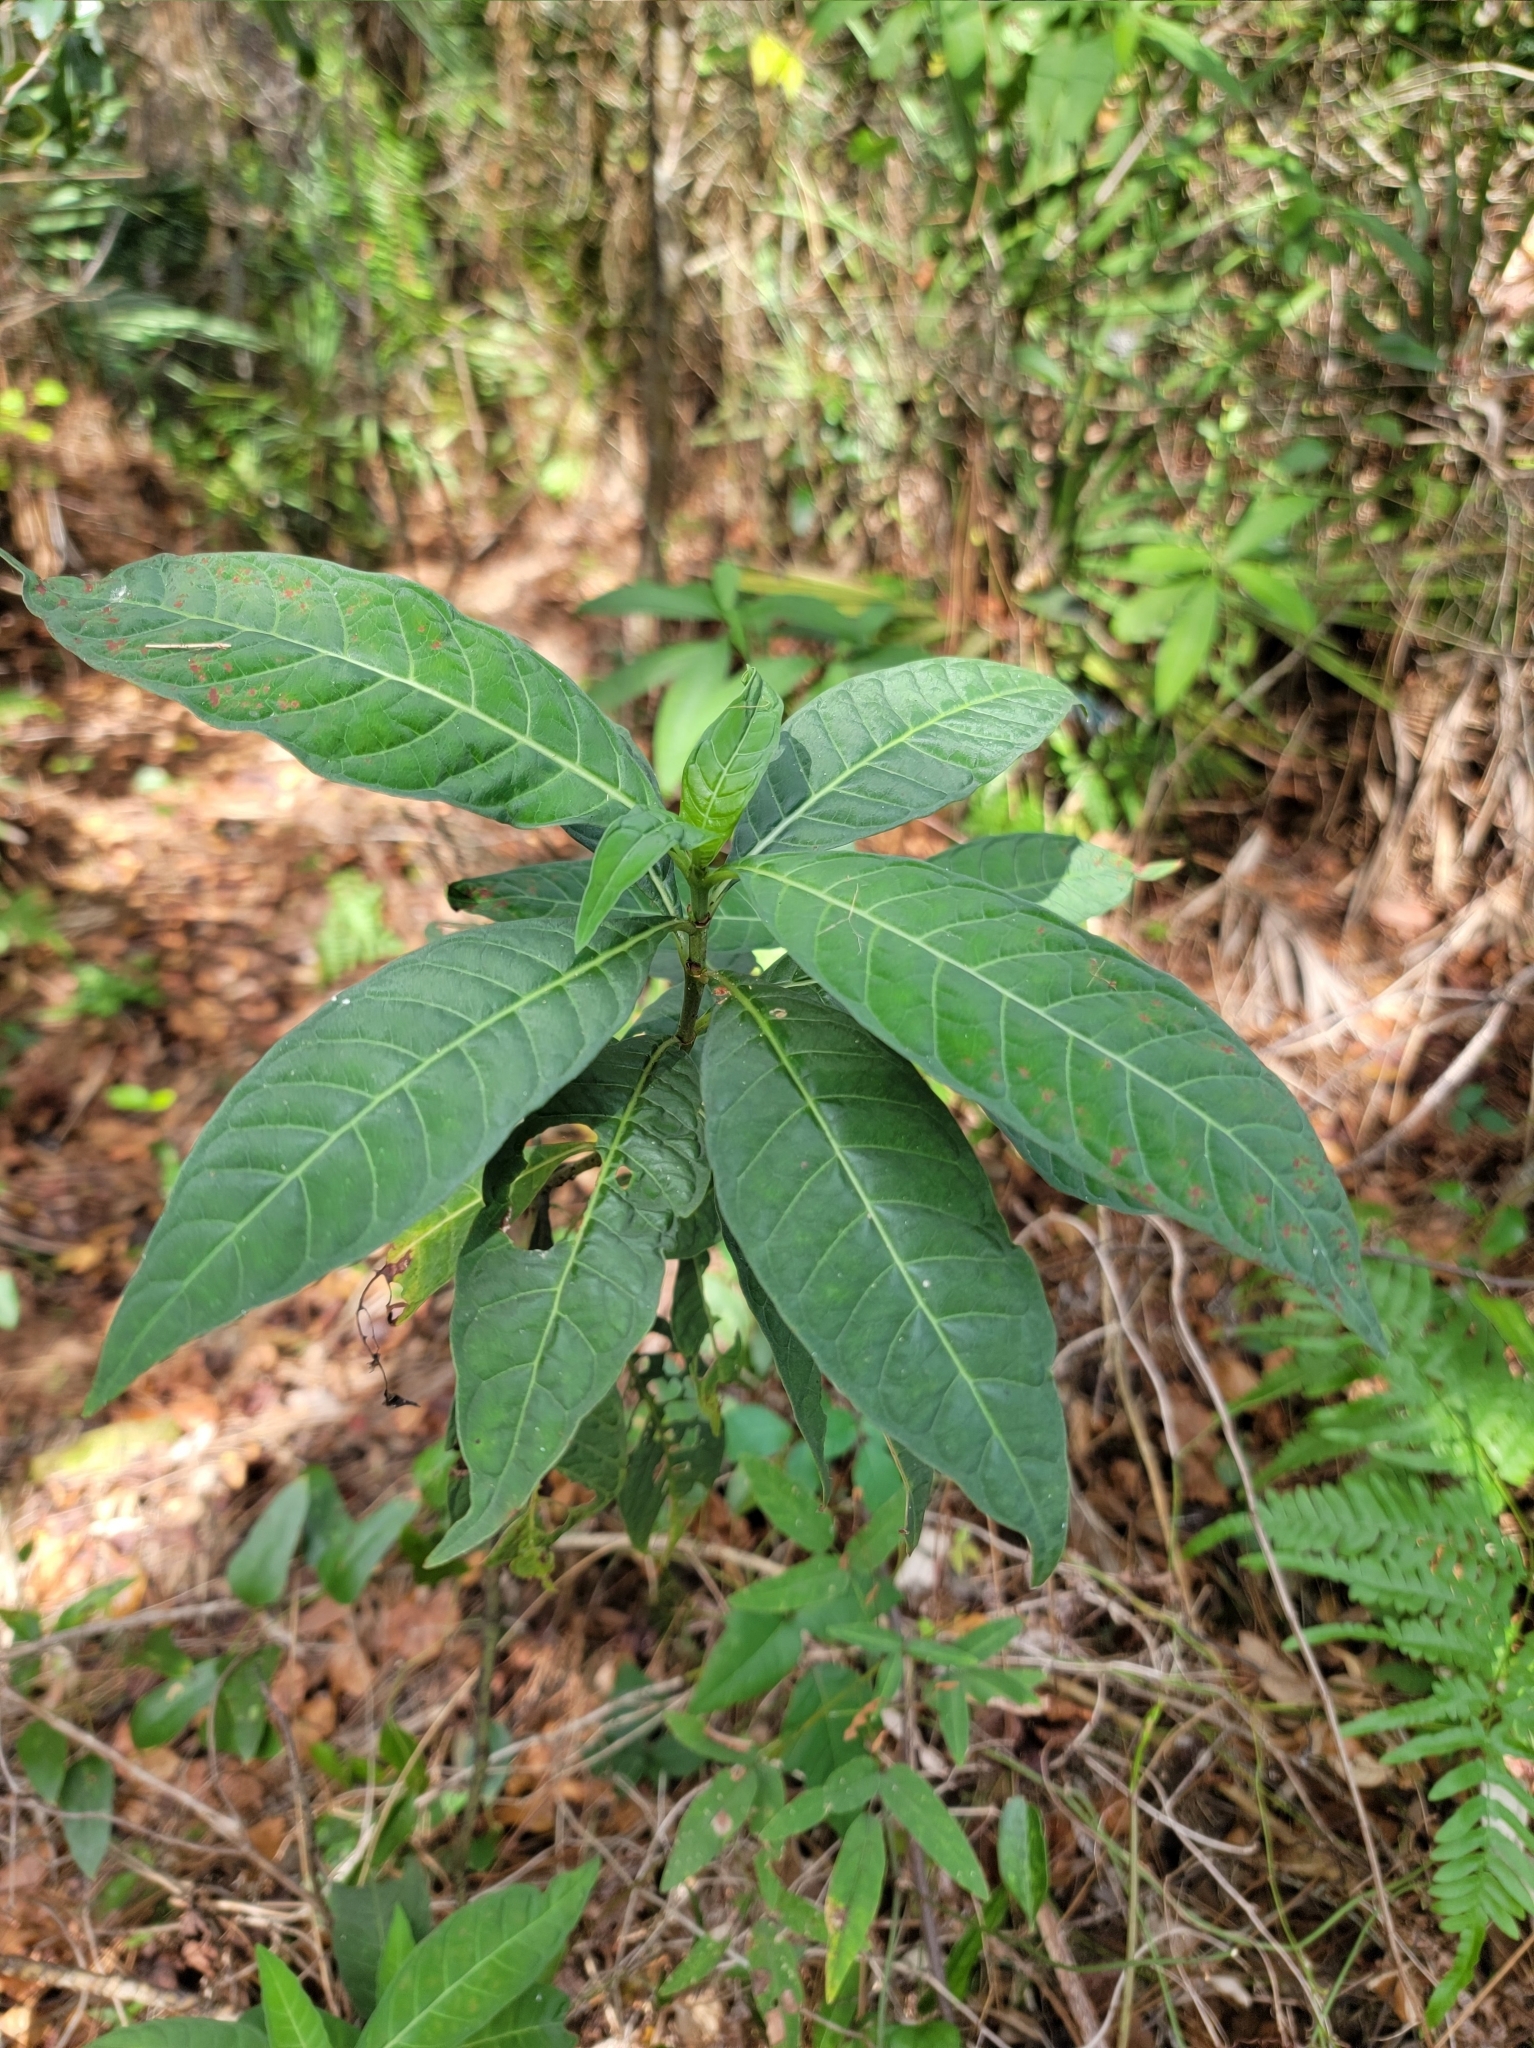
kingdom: Plantae
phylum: Tracheophyta
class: Magnoliopsida
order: Gentianales
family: Rubiaceae
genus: Psychotria
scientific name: Psychotria tenuifolia
